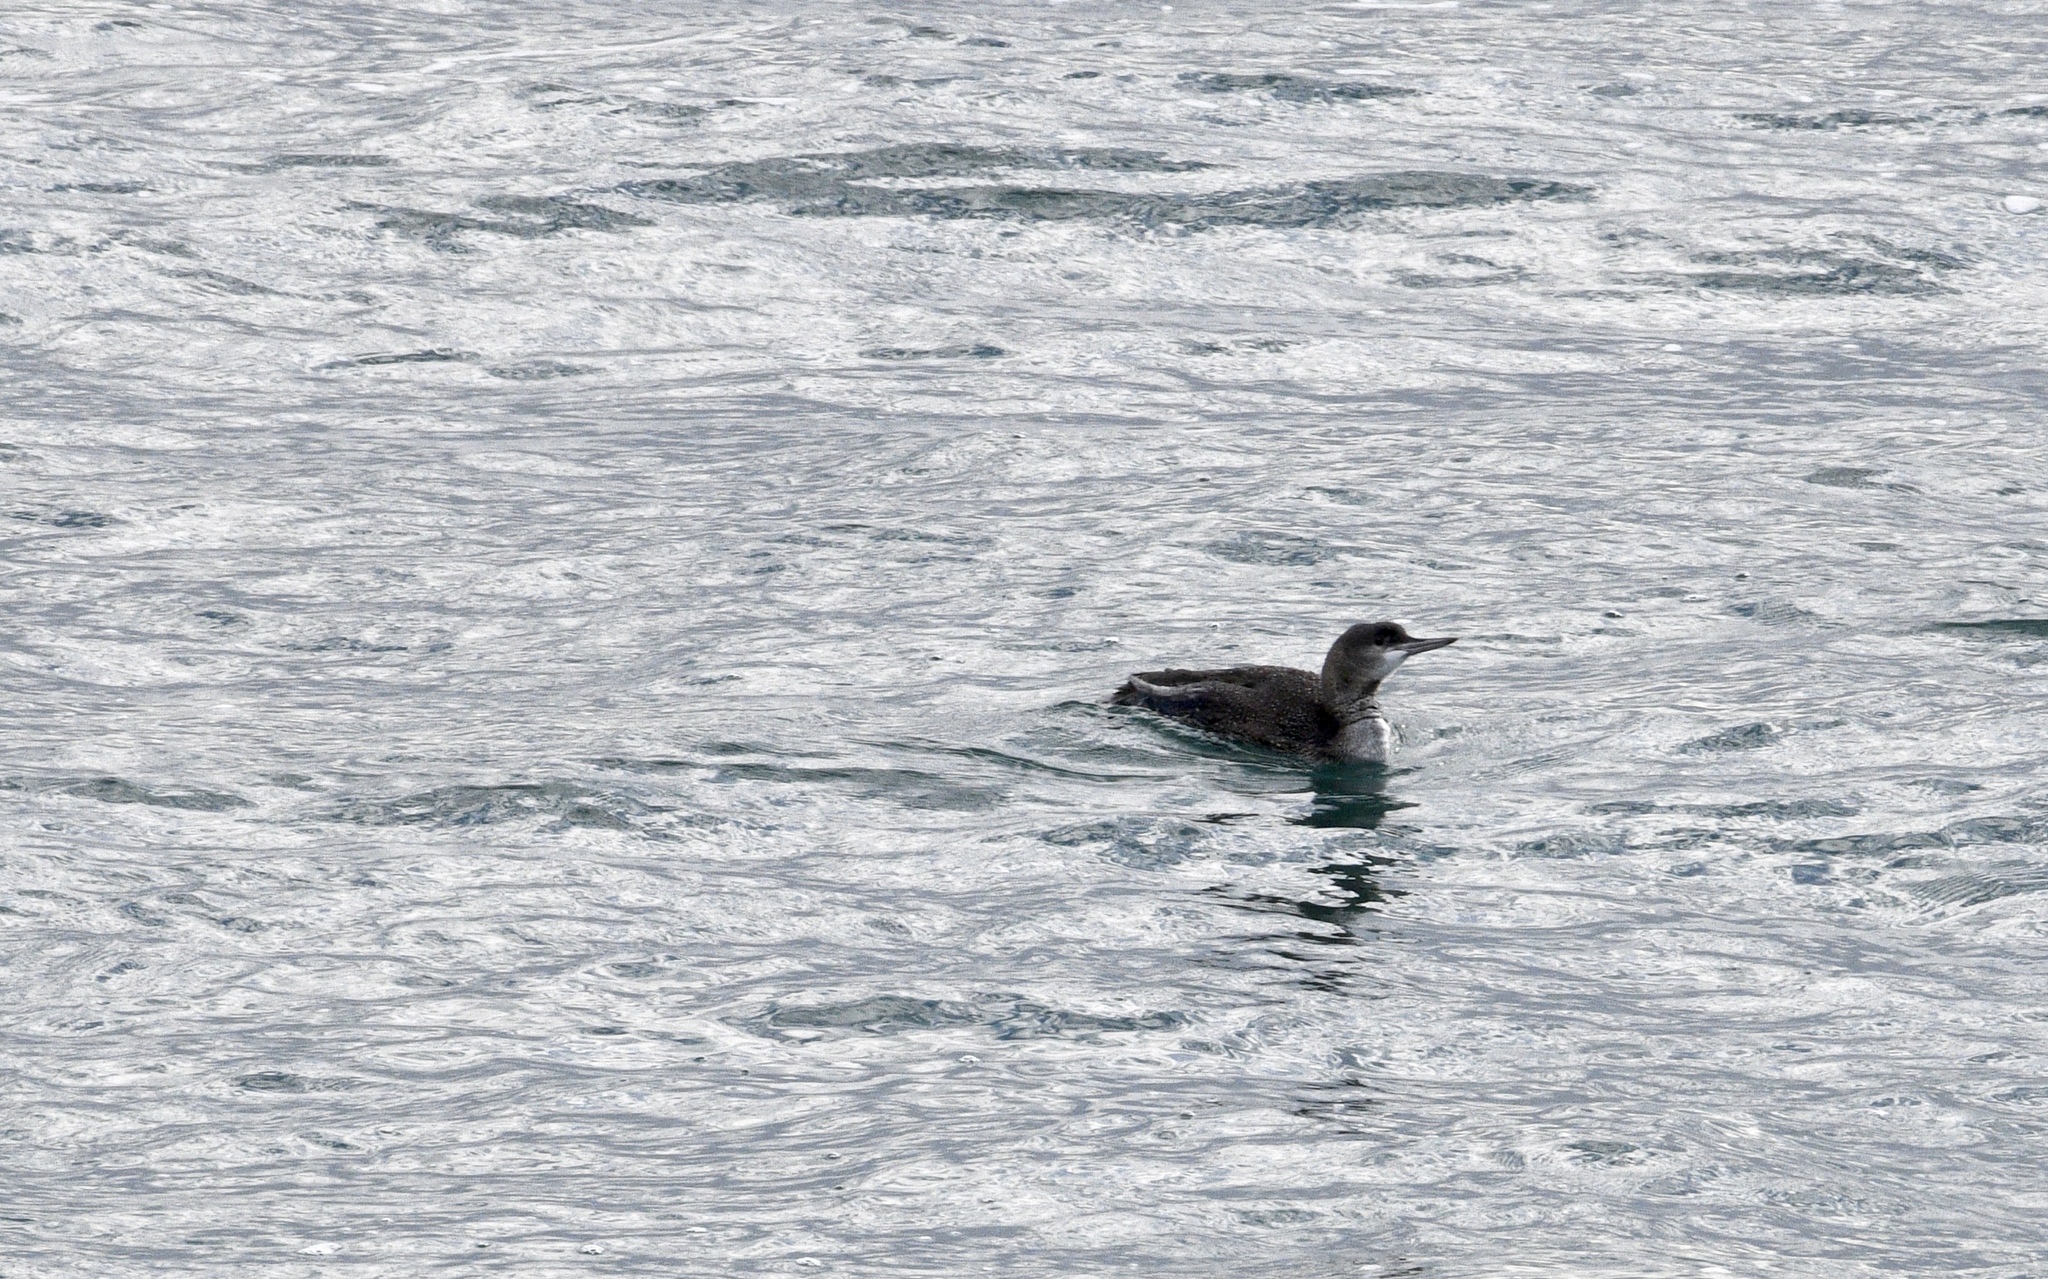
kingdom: Animalia
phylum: Chordata
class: Aves
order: Gaviiformes
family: Gaviidae
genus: Gavia
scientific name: Gavia stellata
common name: Red-throated loon
